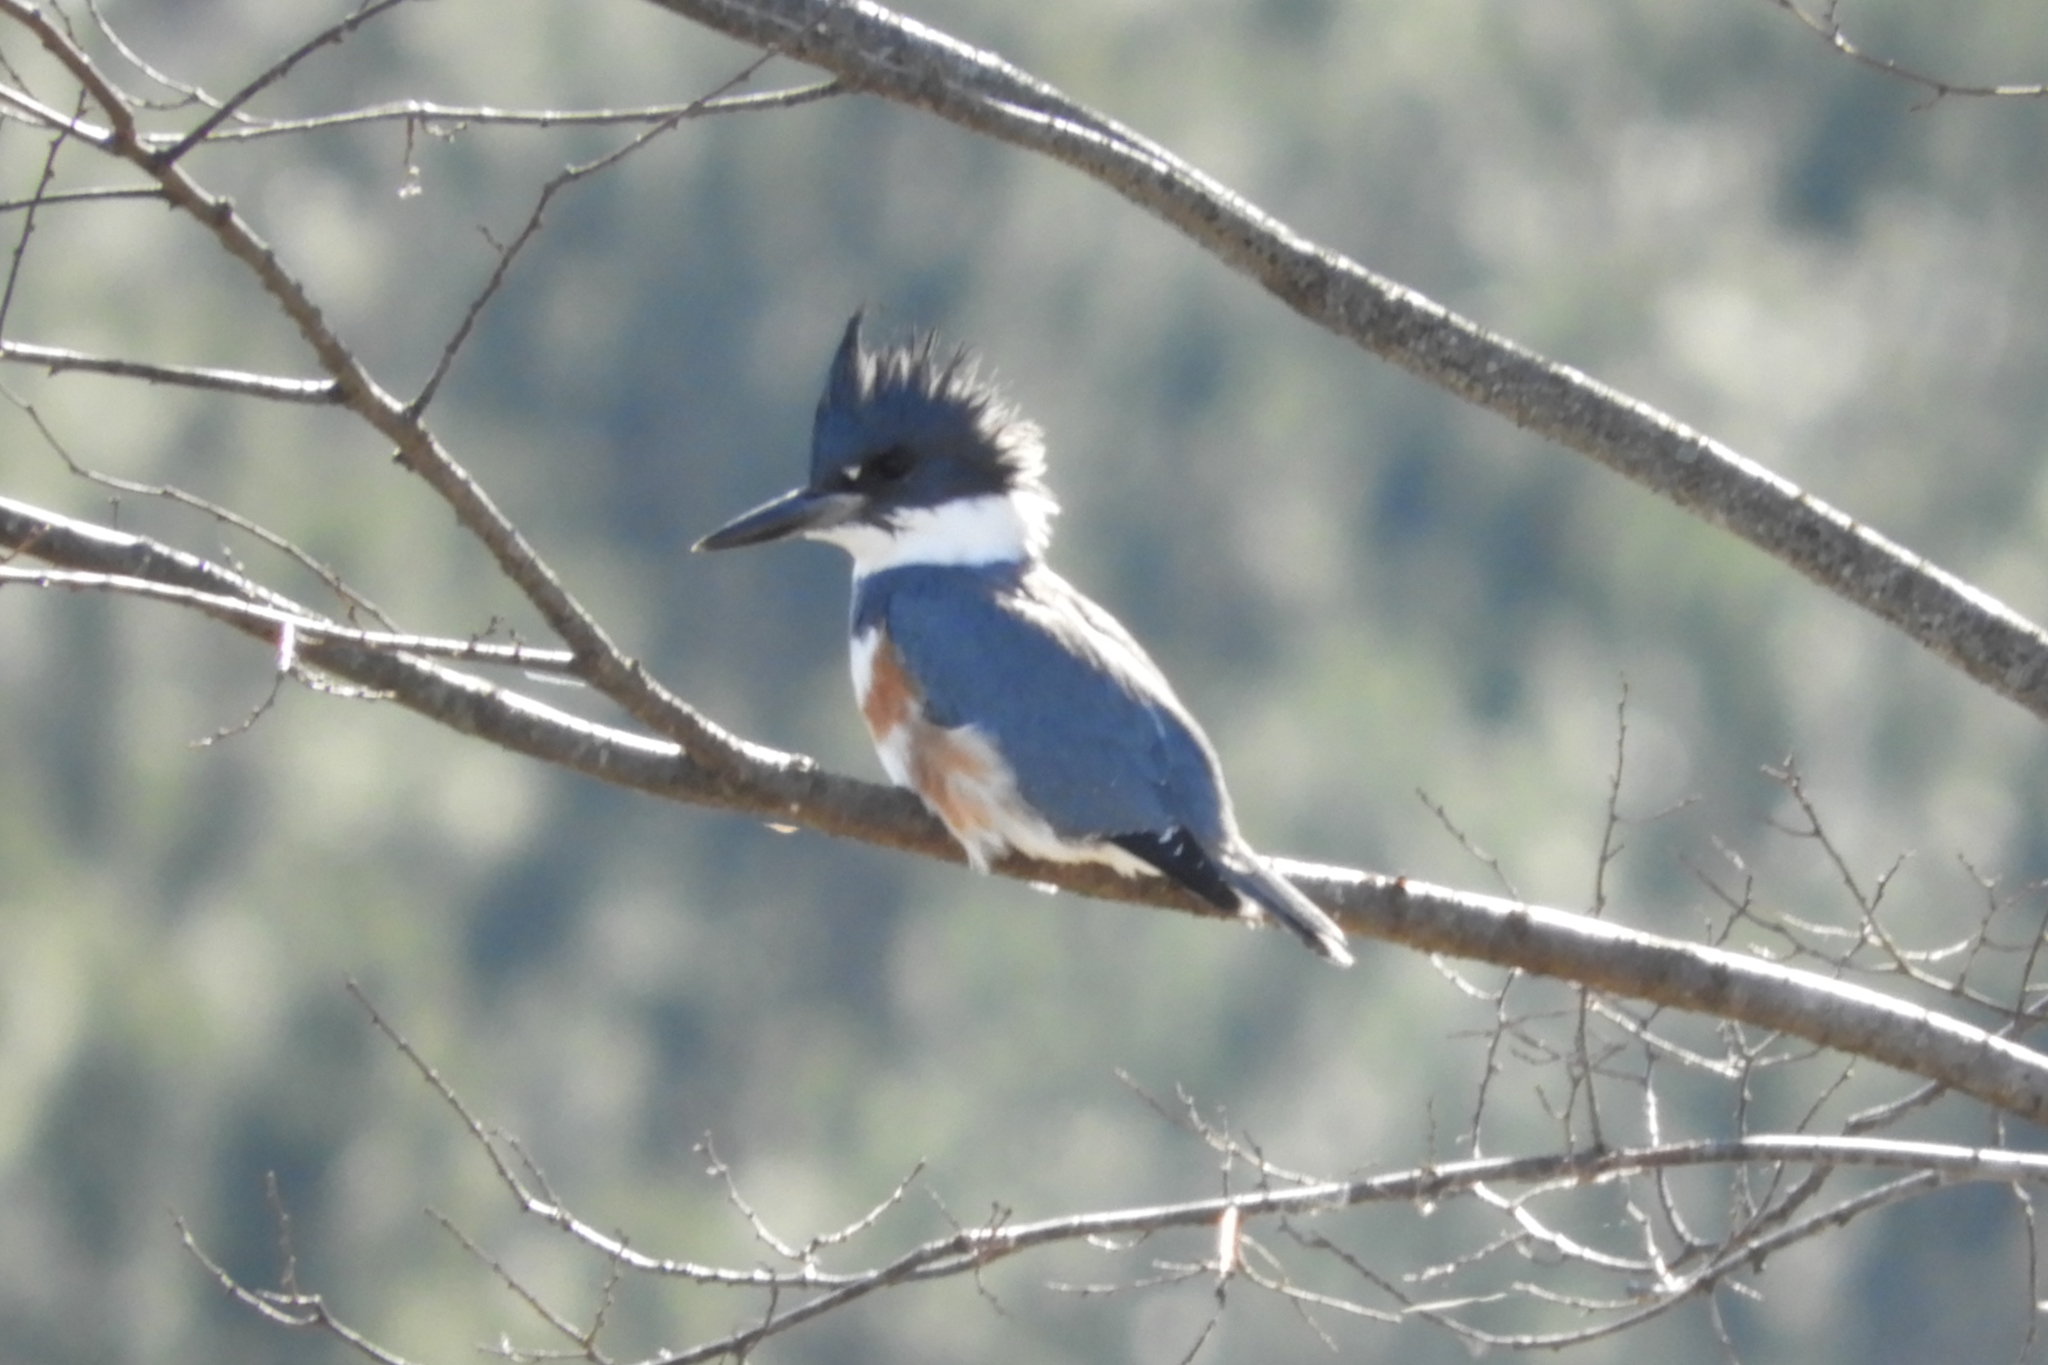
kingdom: Animalia
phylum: Chordata
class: Aves
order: Coraciiformes
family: Alcedinidae
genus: Megaceryle
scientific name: Megaceryle alcyon
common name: Belted kingfisher
